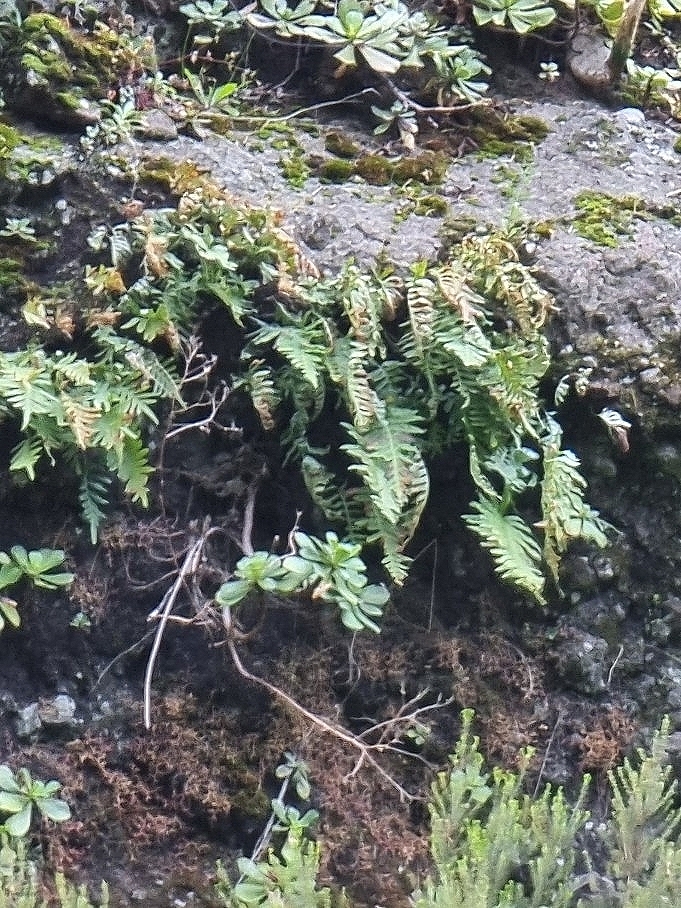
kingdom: Plantae
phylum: Tracheophyta
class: Polypodiopsida
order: Polypodiales
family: Polypodiaceae
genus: Polypodium
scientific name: Polypodium macaronesicum
